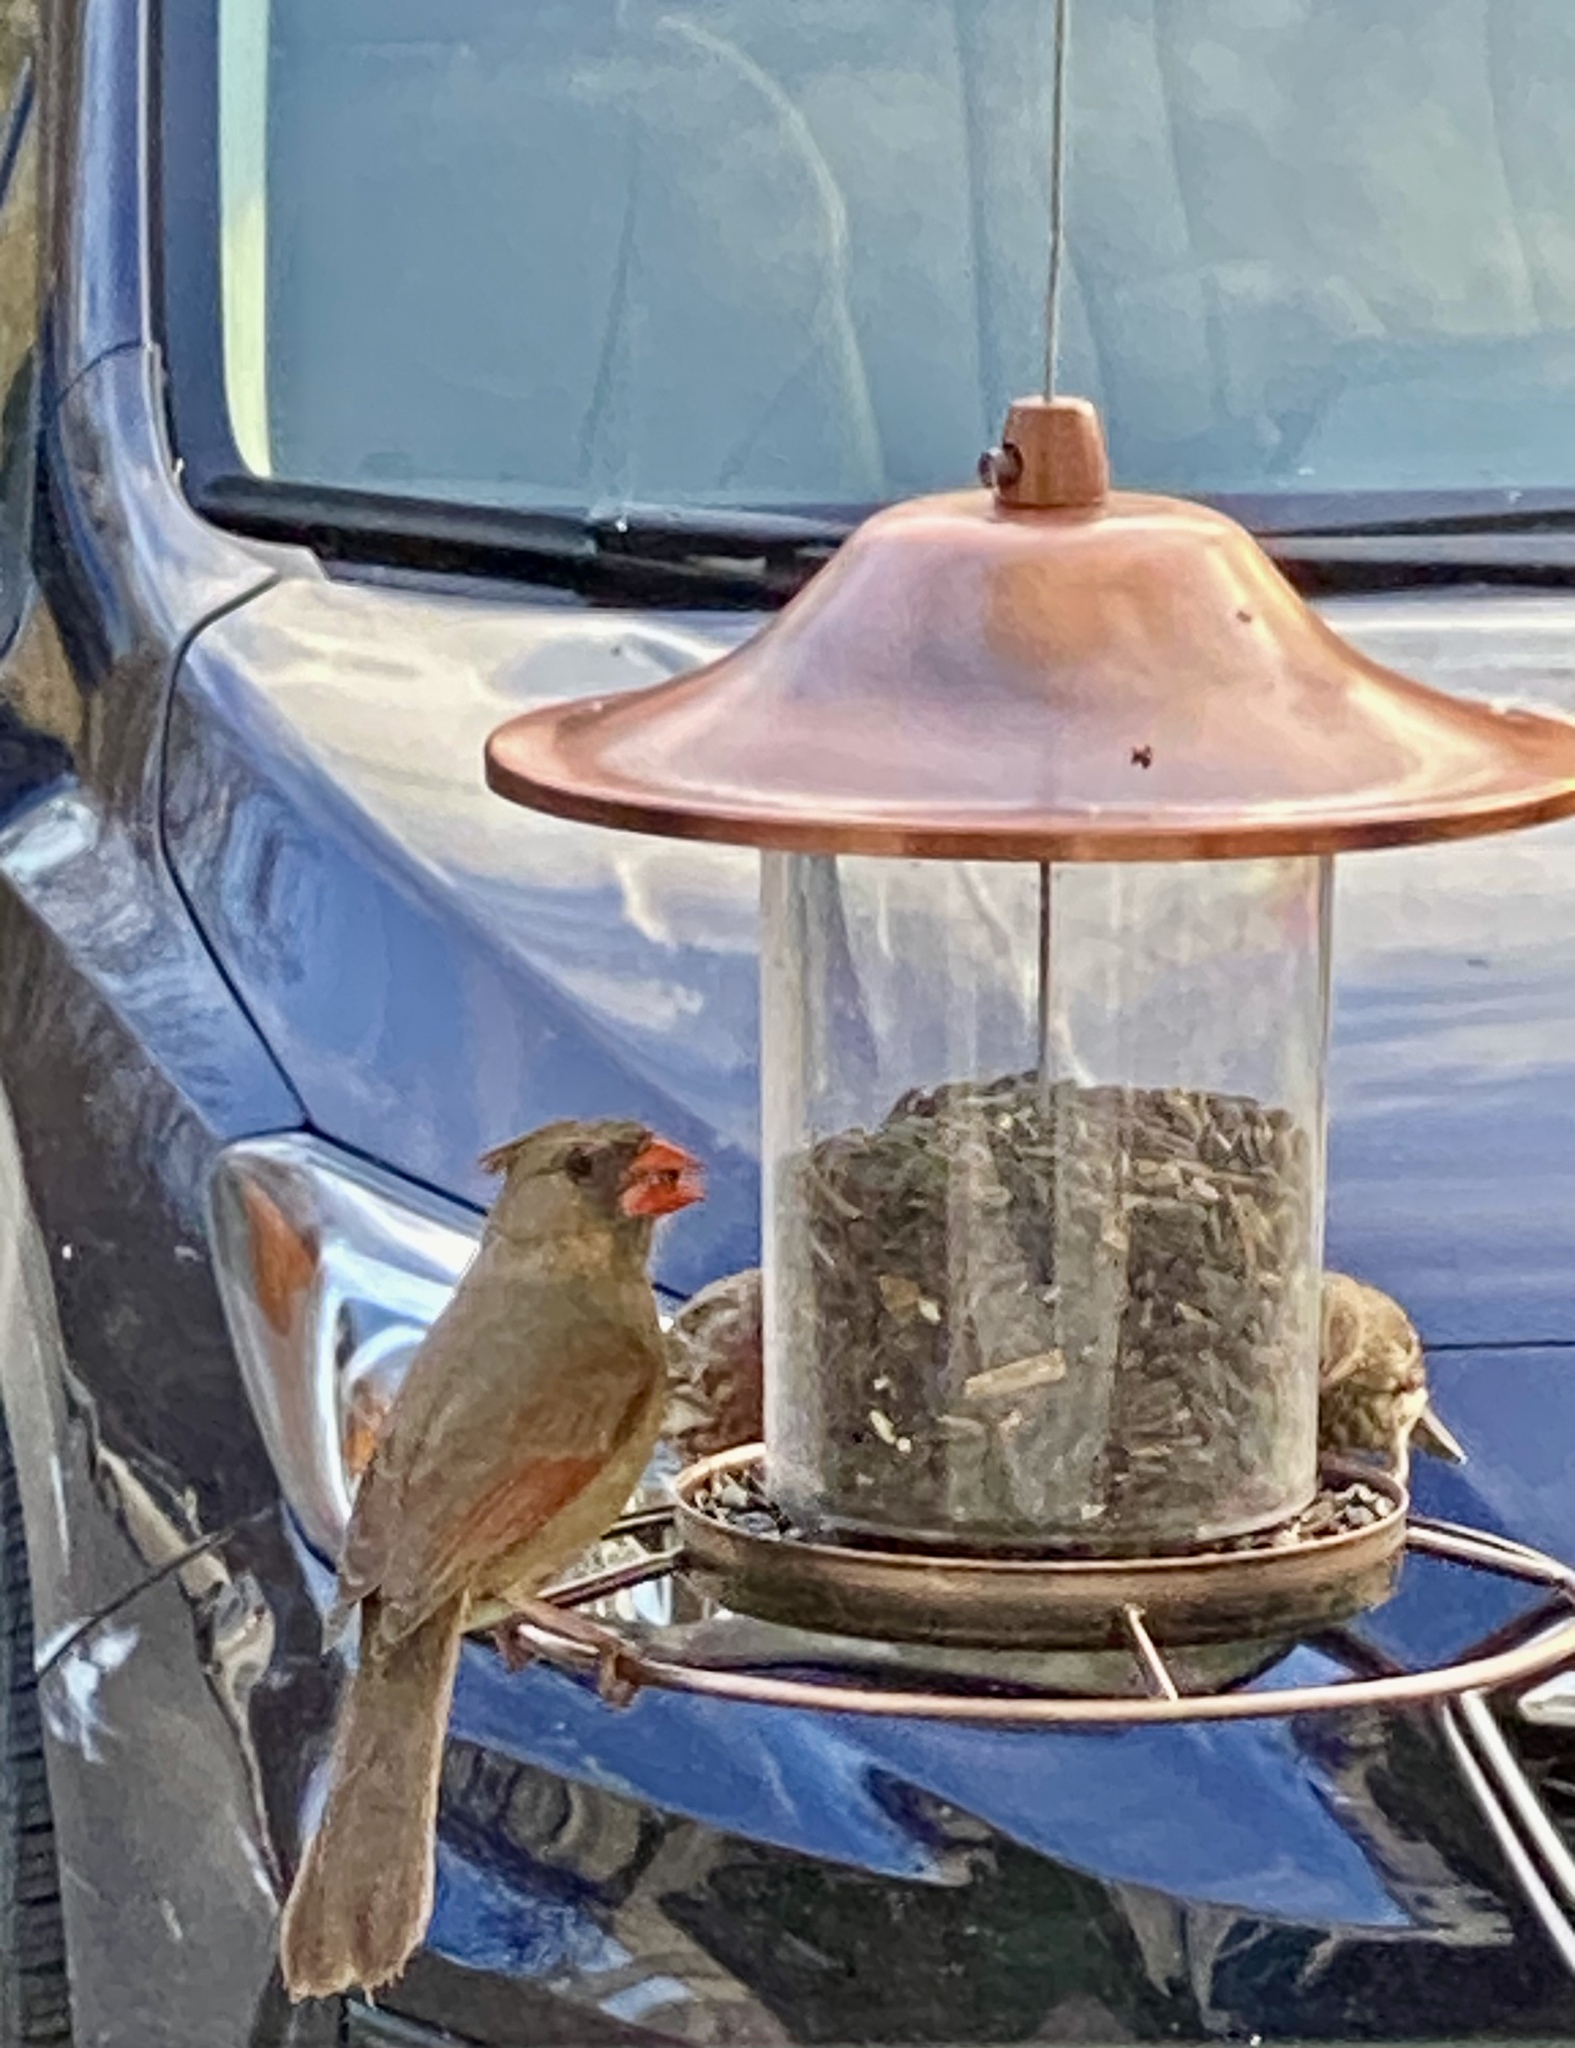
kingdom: Animalia
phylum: Chordata
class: Aves
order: Passeriformes
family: Cardinalidae
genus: Cardinalis
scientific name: Cardinalis cardinalis
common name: Northern cardinal
